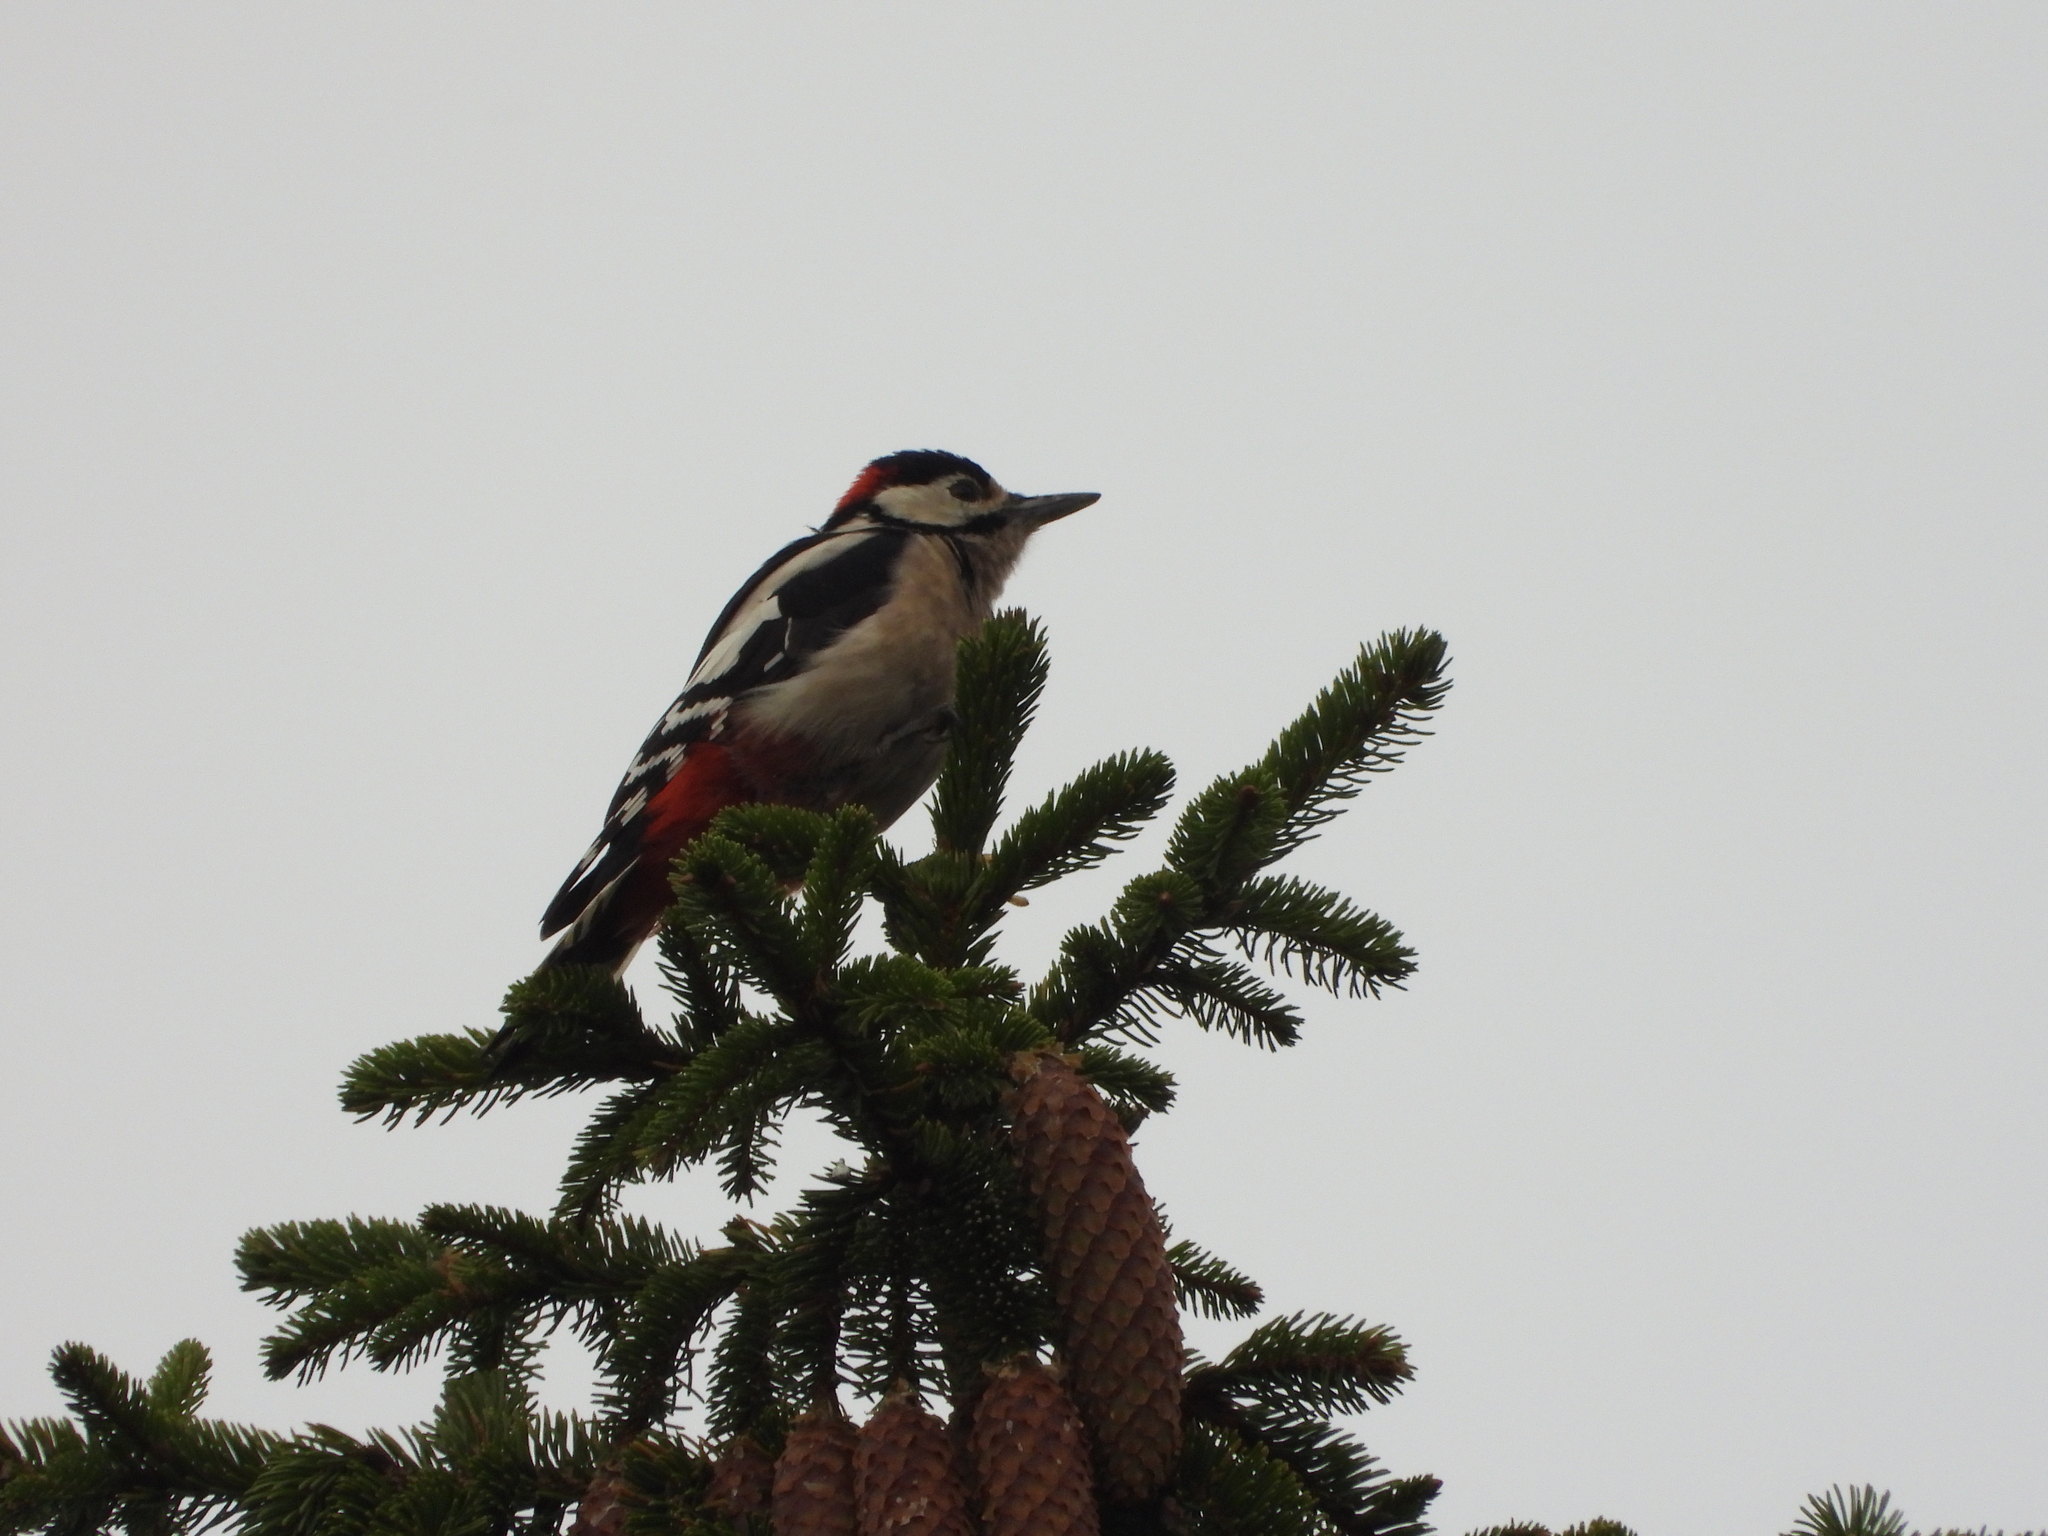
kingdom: Animalia
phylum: Chordata
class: Aves
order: Piciformes
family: Picidae
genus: Dendrocopos
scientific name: Dendrocopos major
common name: Great spotted woodpecker
